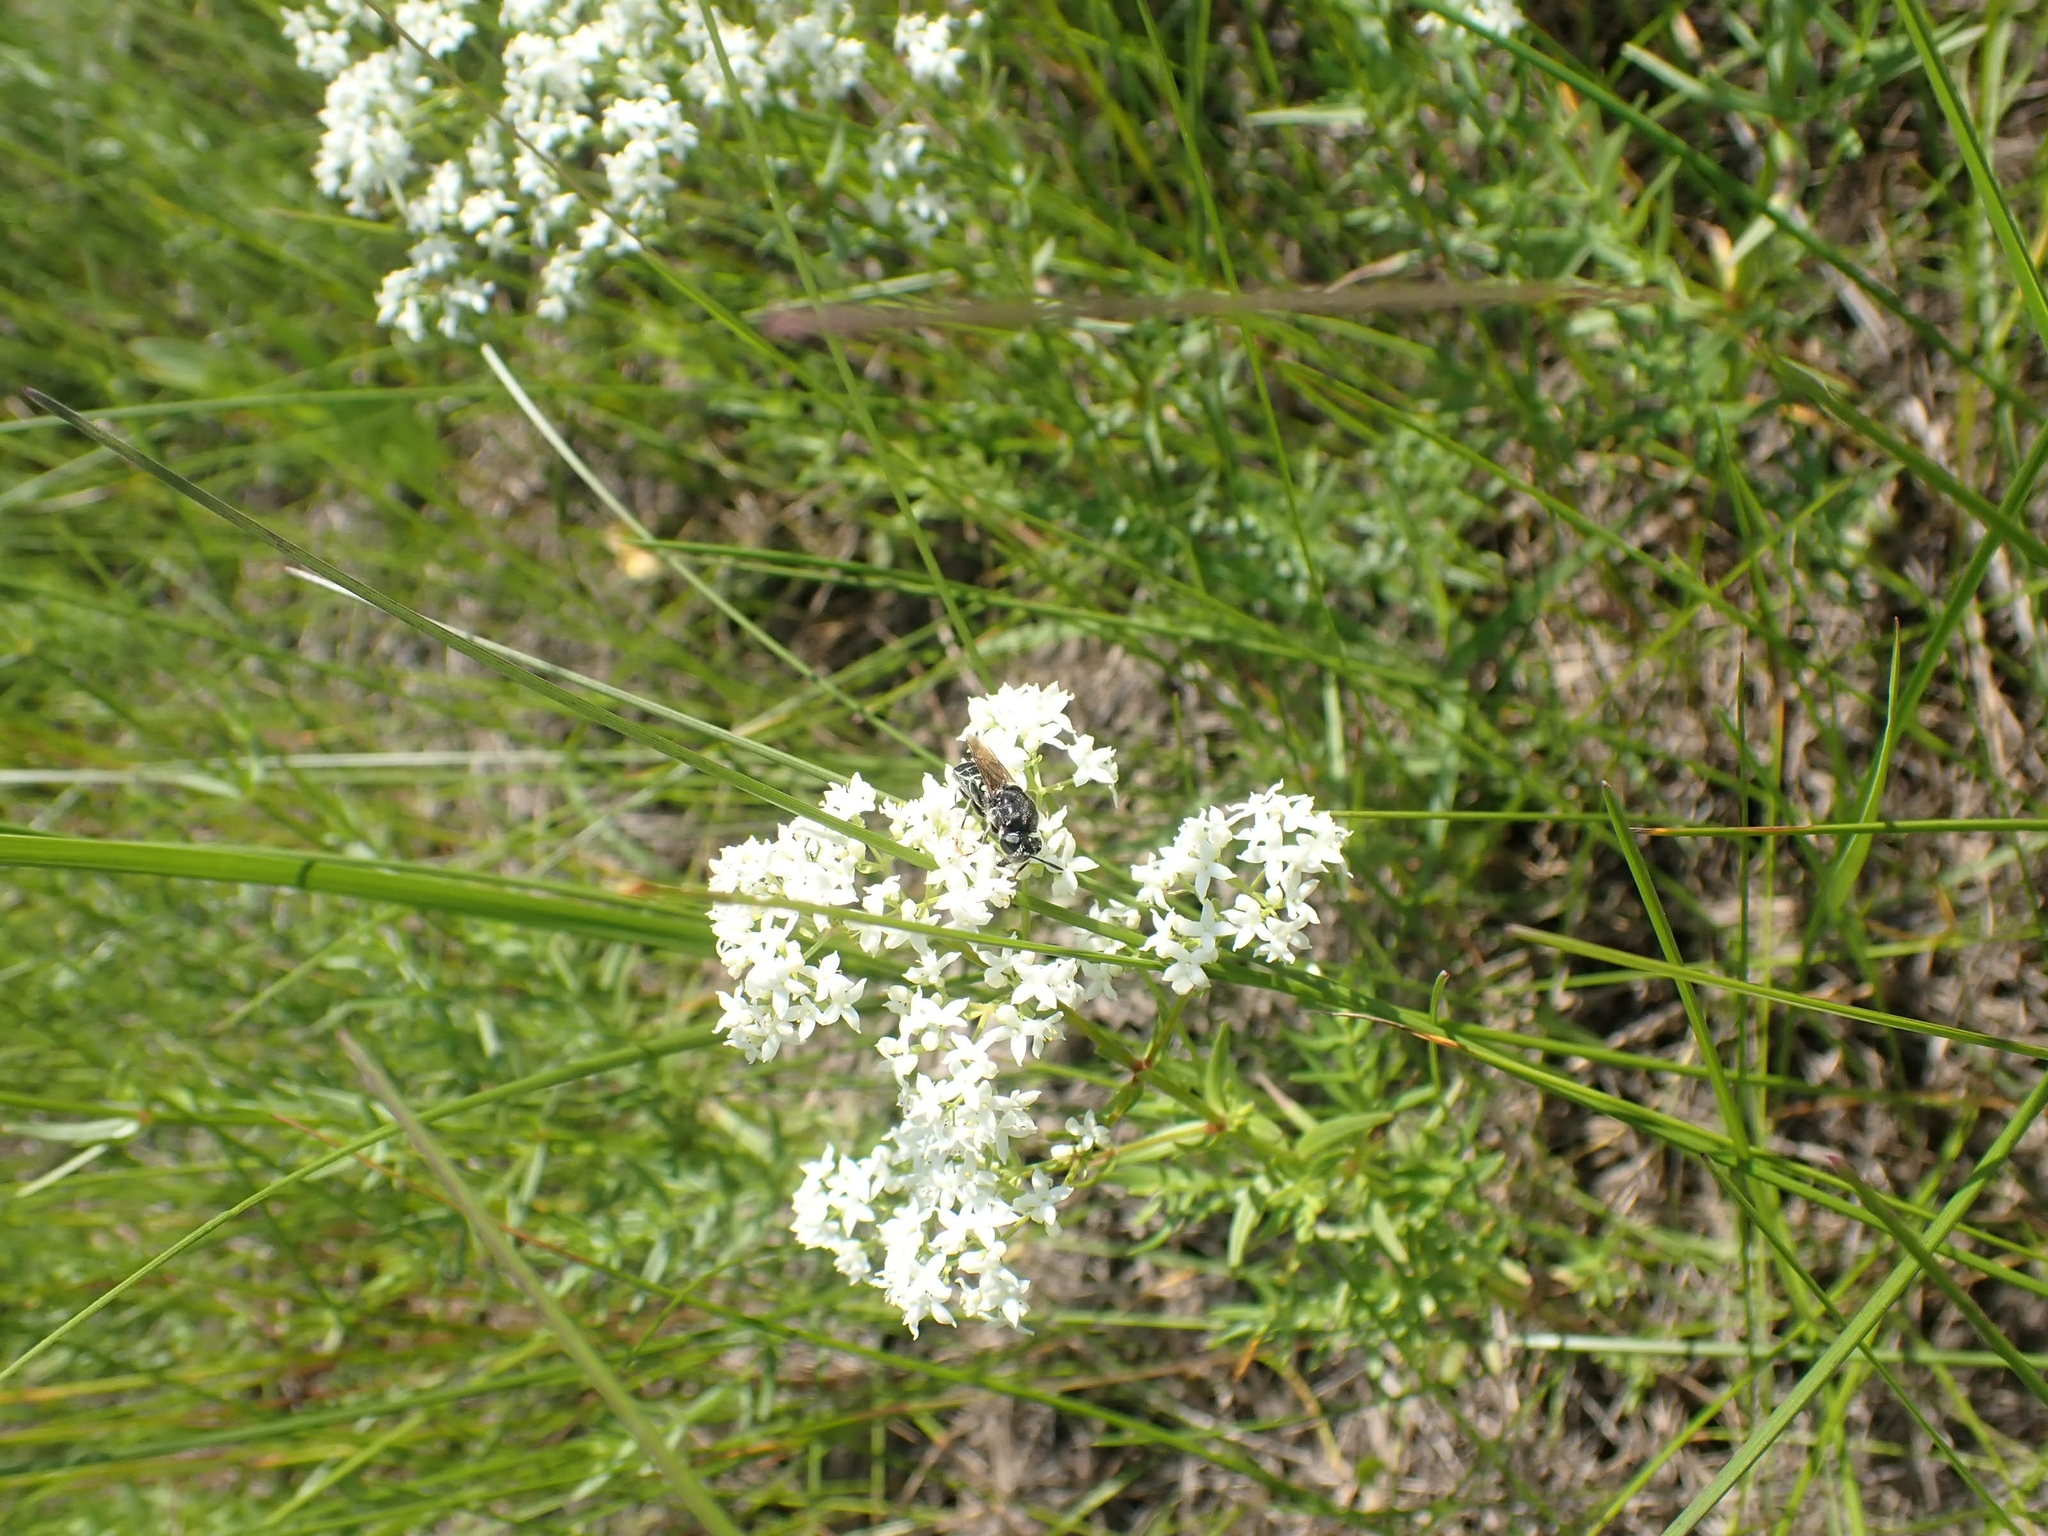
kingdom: Plantae
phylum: Tracheophyta
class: Magnoliopsida
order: Gentianales
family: Rubiaceae
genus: Galium
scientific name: Galium boreale
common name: Northern bedstraw
